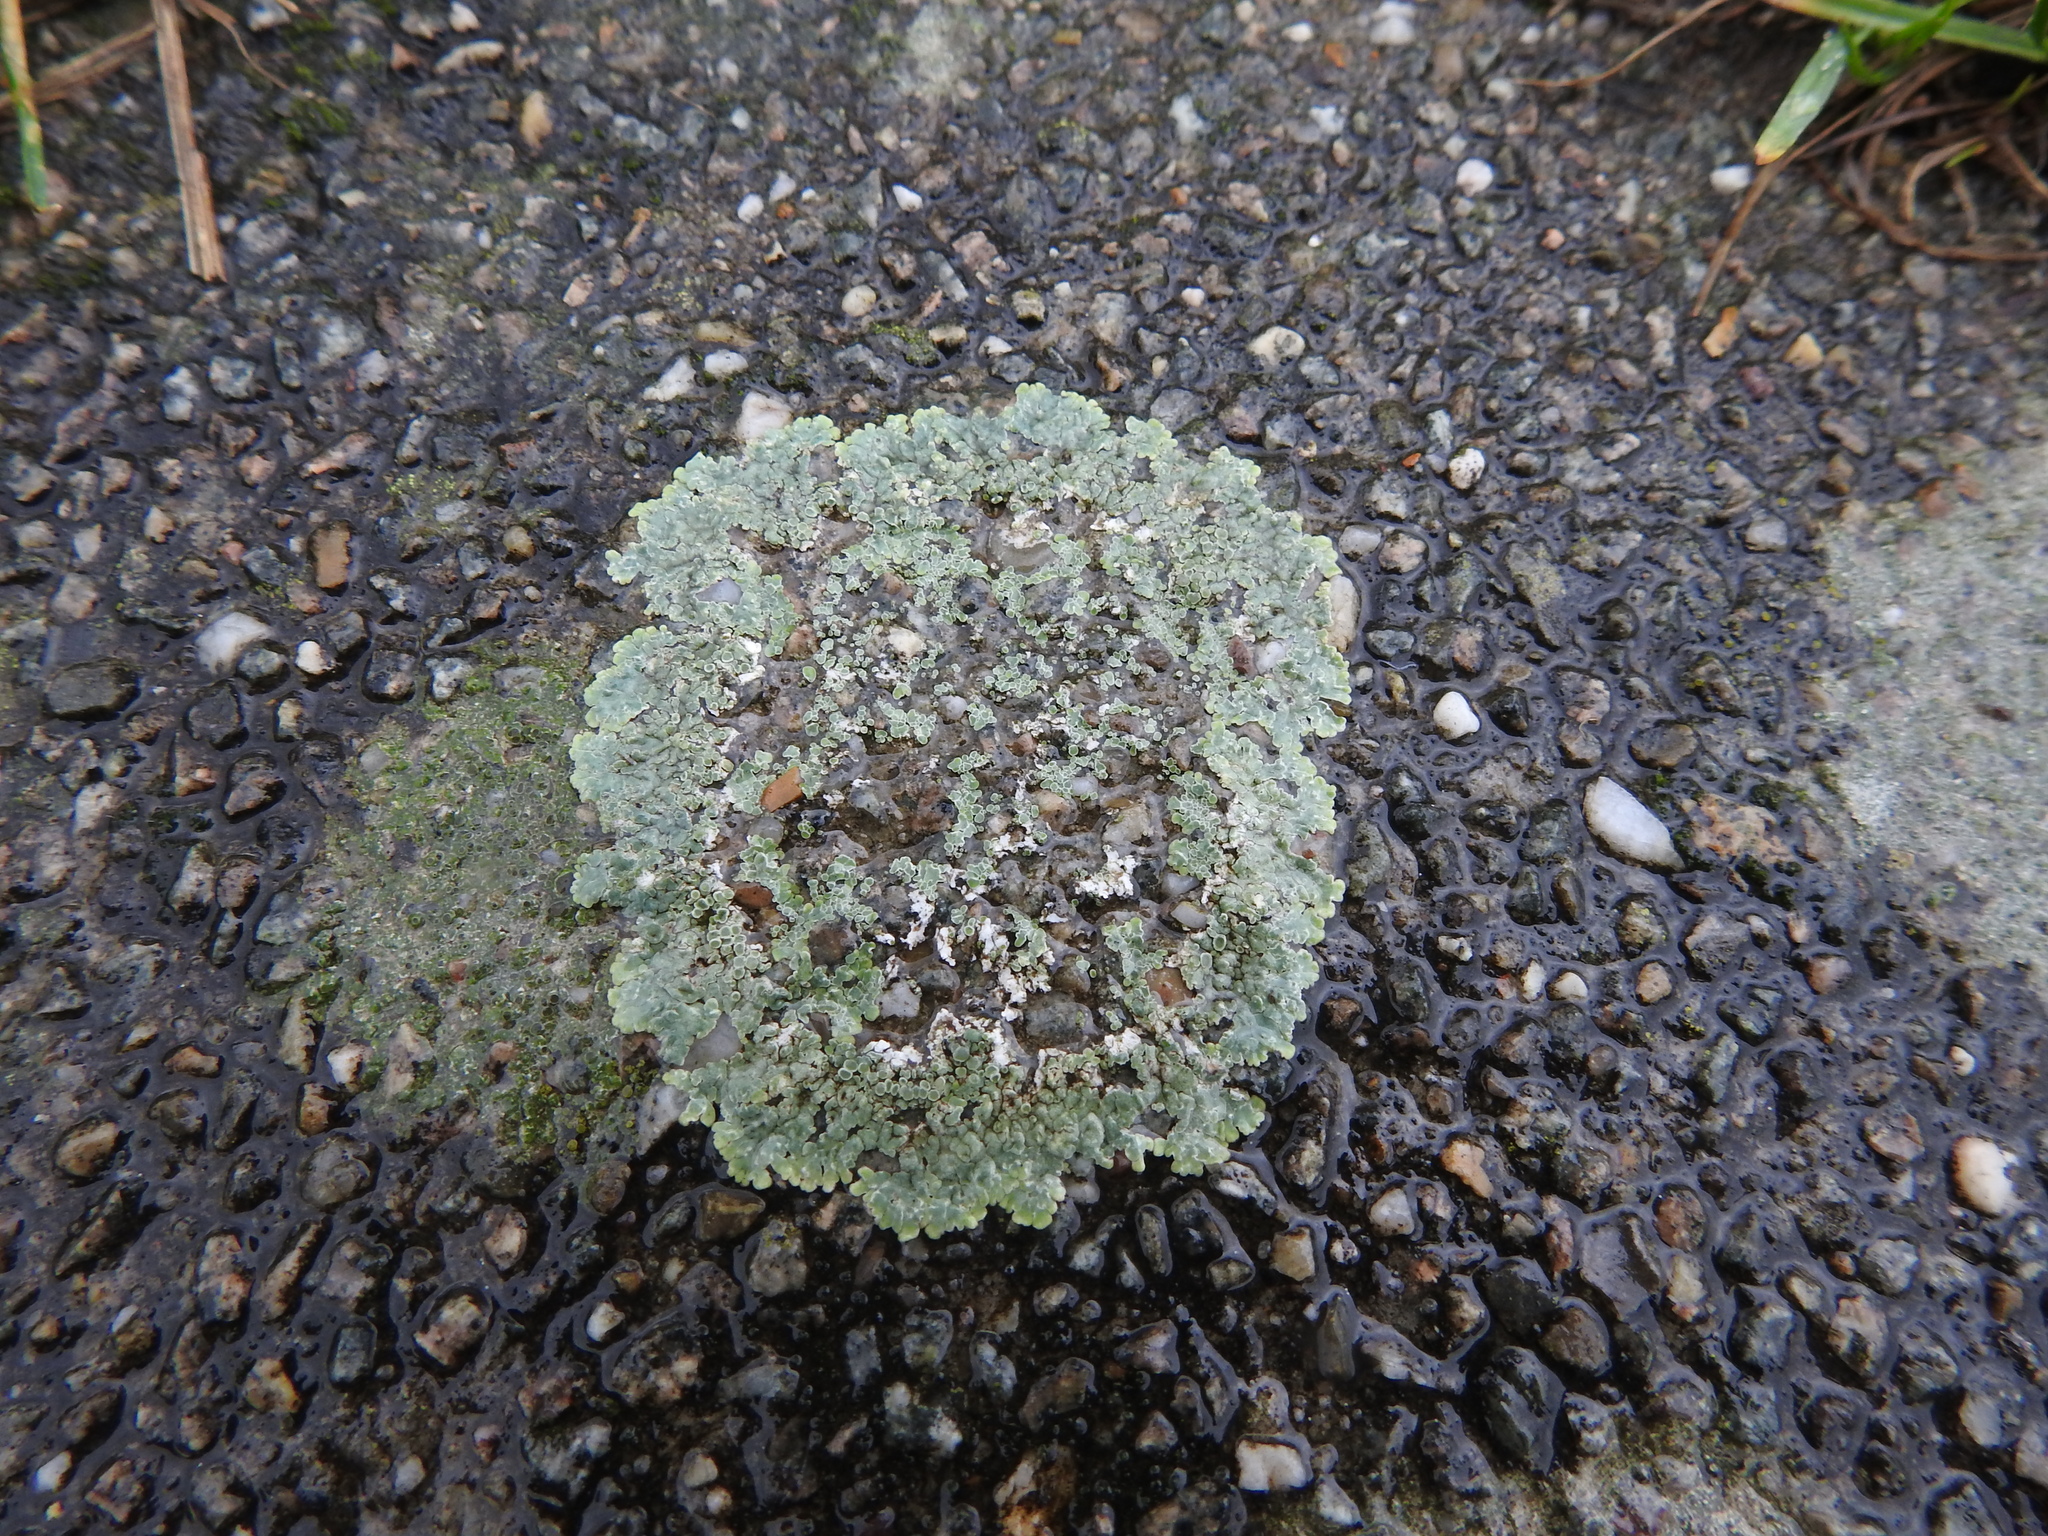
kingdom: Fungi
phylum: Ascomycota
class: Lecanoromycetes
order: Lecanorales
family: Lecanoraceae
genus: Protoparmeliopsis
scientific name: Protoparmeliopsis muralis
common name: Stonewall rim lichen
